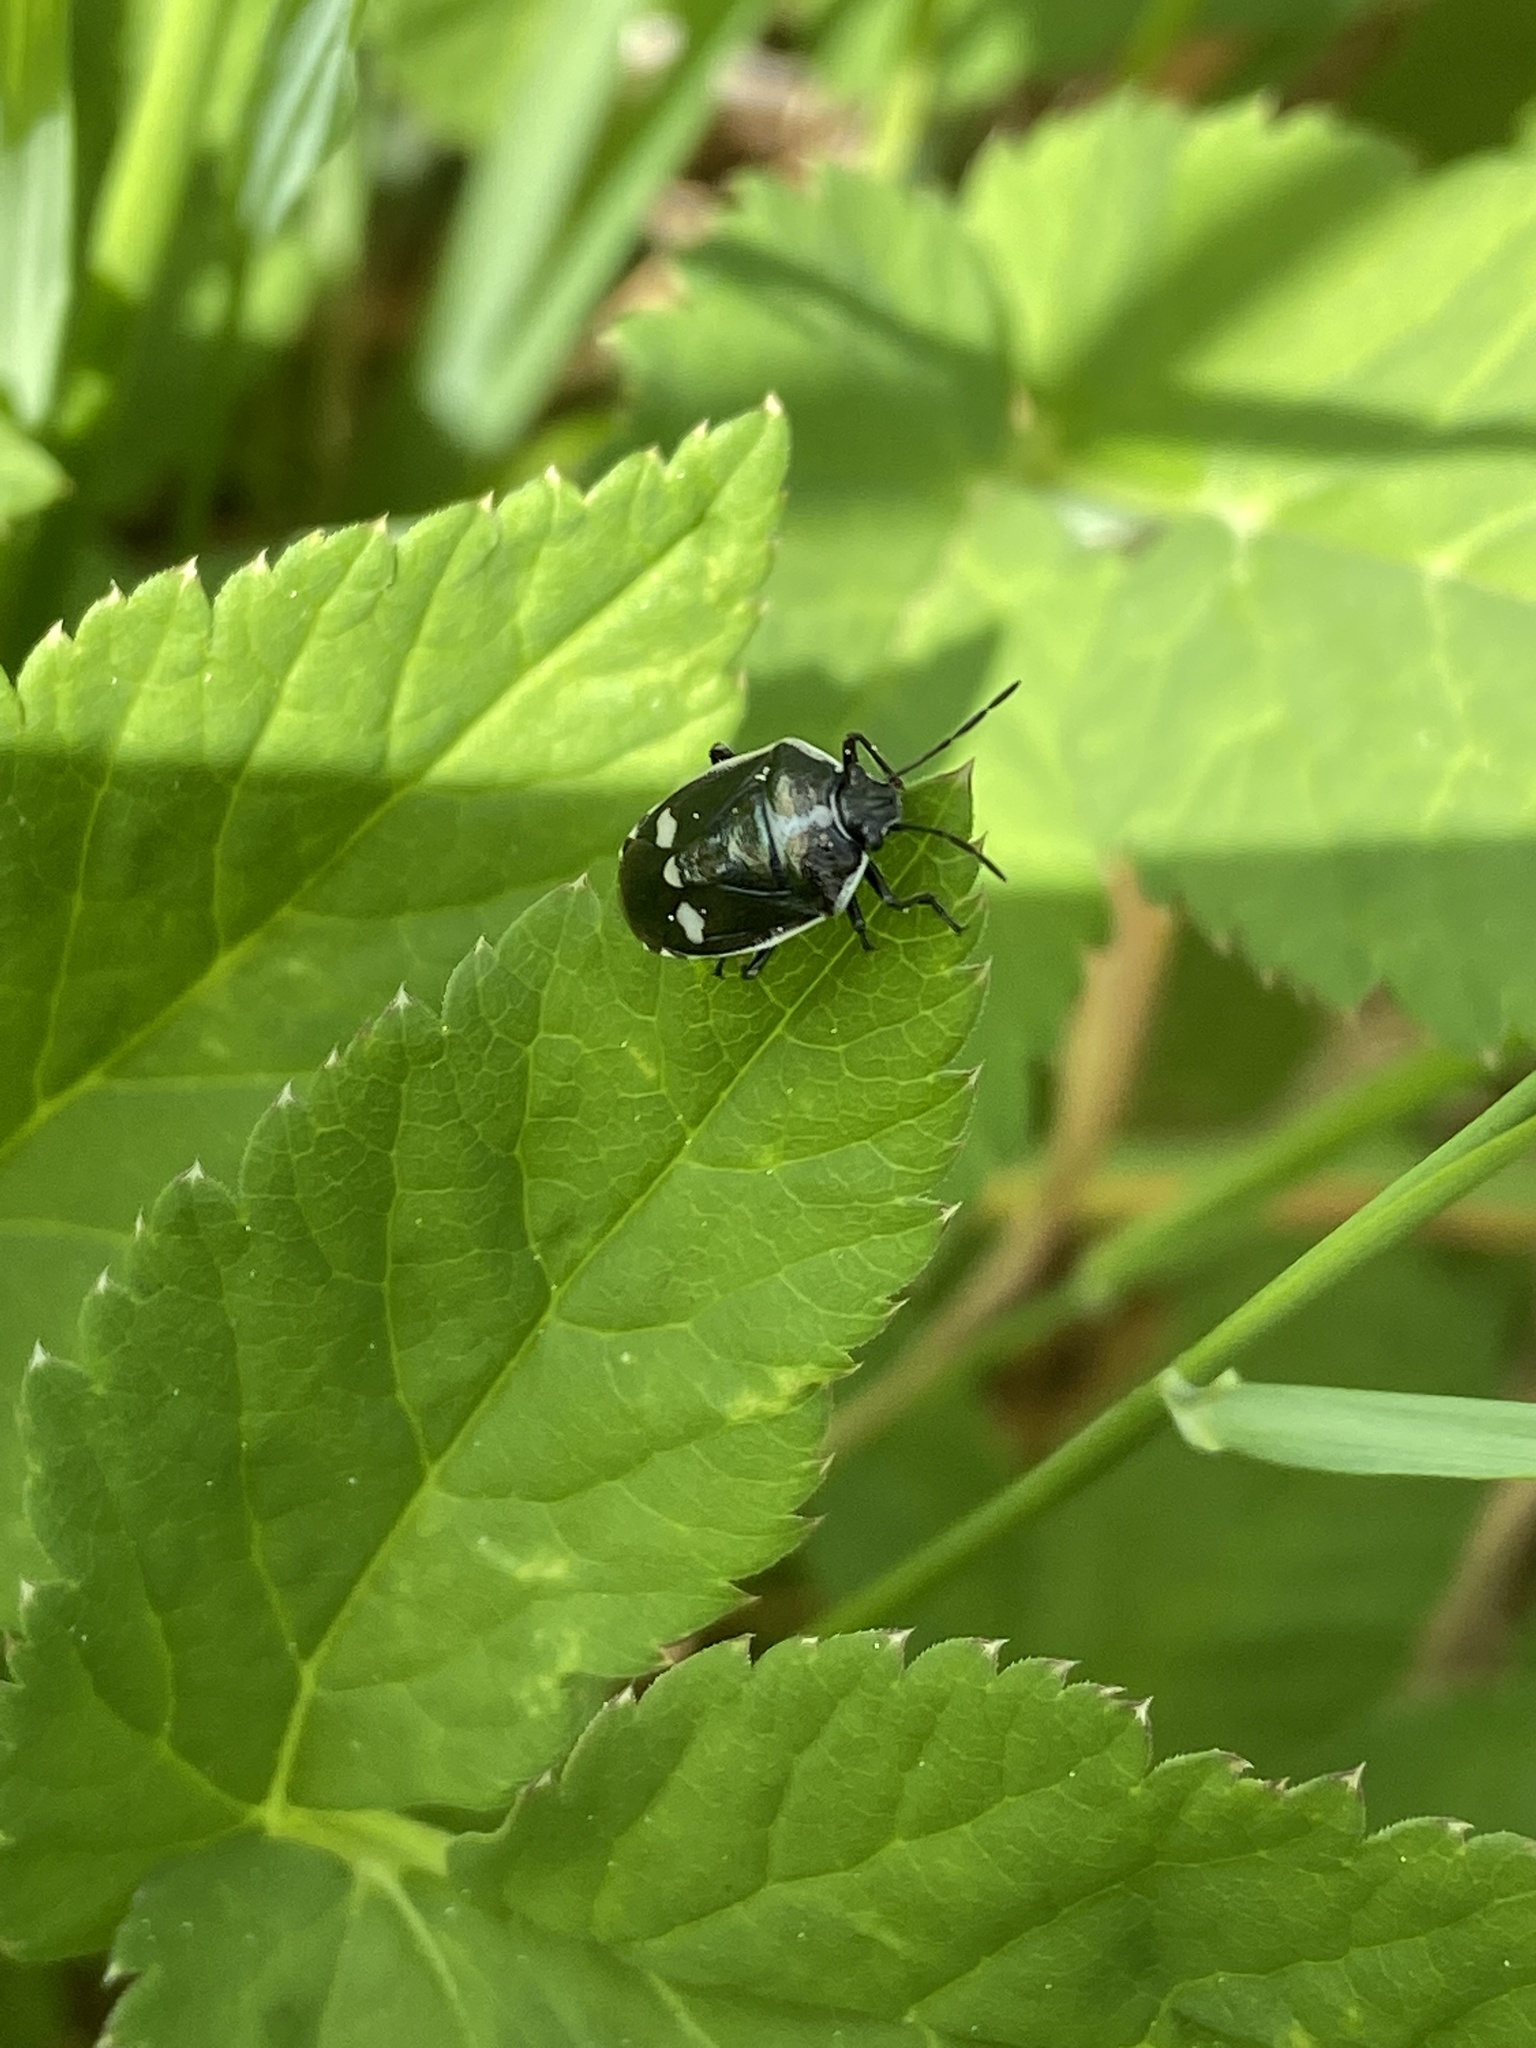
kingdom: Animalia
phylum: Arthropoda
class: Insecta
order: Hemiptera
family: Pentatomidae
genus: Eurydema
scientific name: Eurydema oleracea
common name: Cabbage bug
